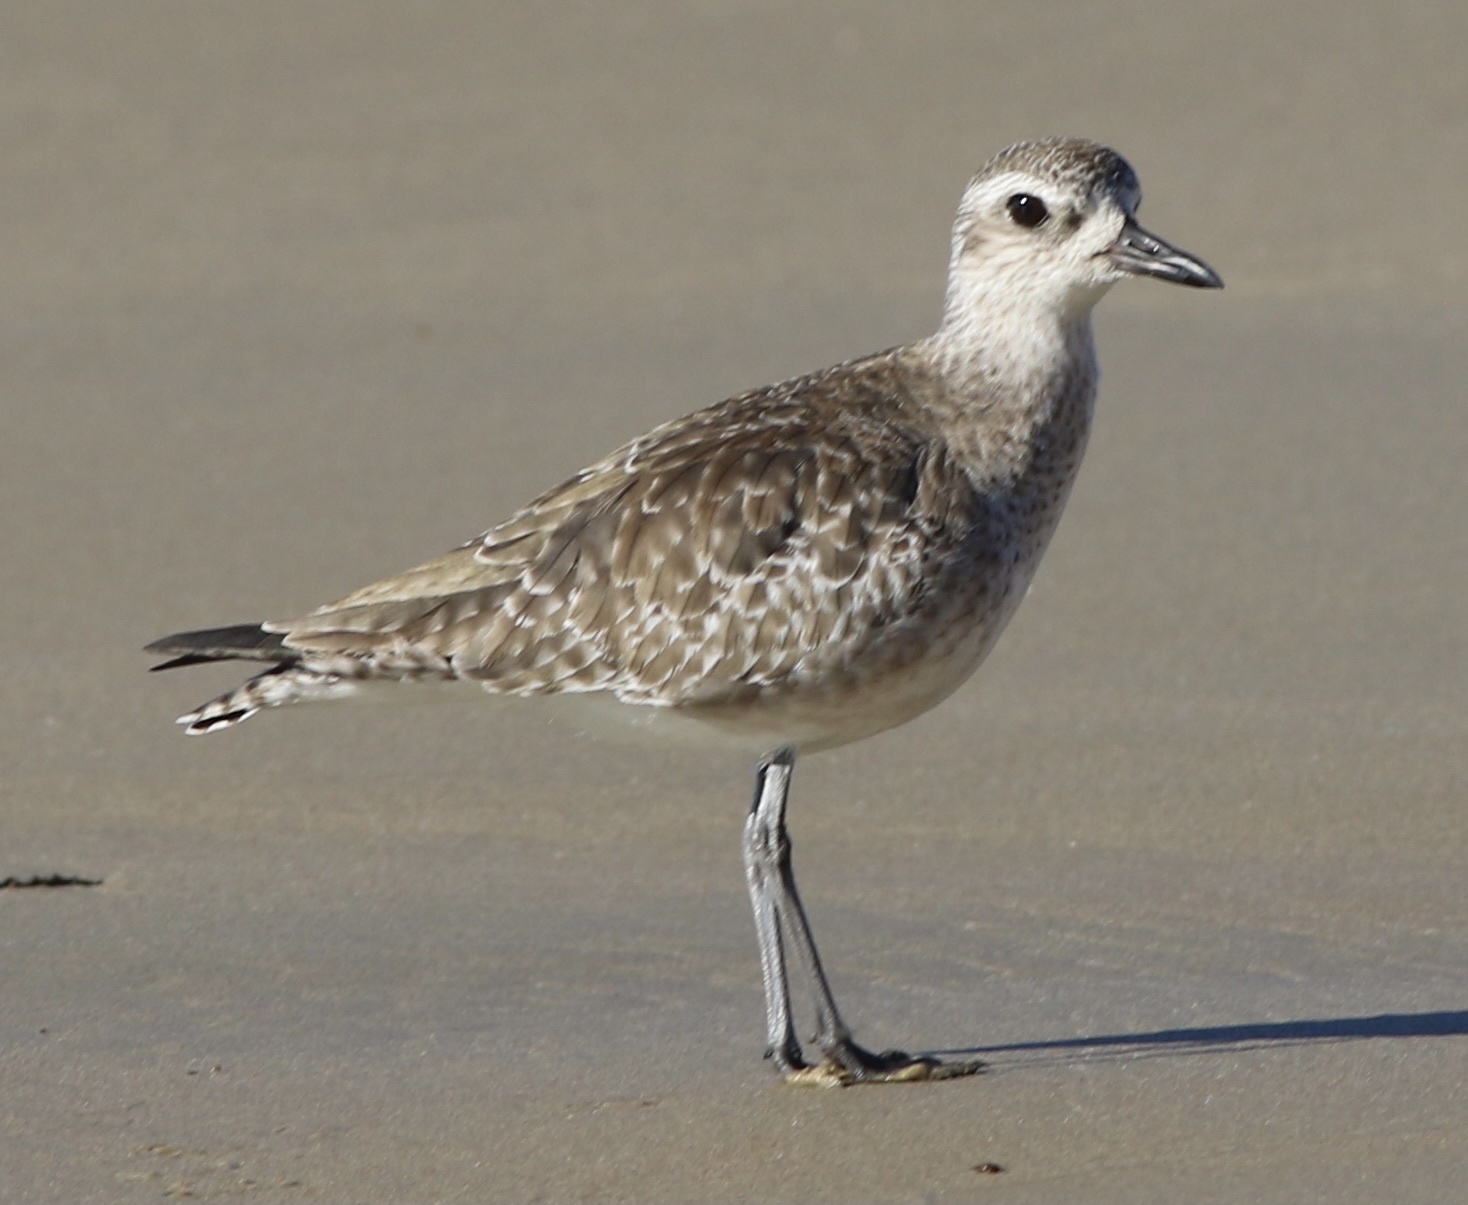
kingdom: Animalia
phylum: Chordata
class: Aves
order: Charadriiformes
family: Charadriidae
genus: Pluvialis
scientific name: Pluvialis squatarola
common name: Grey plover
